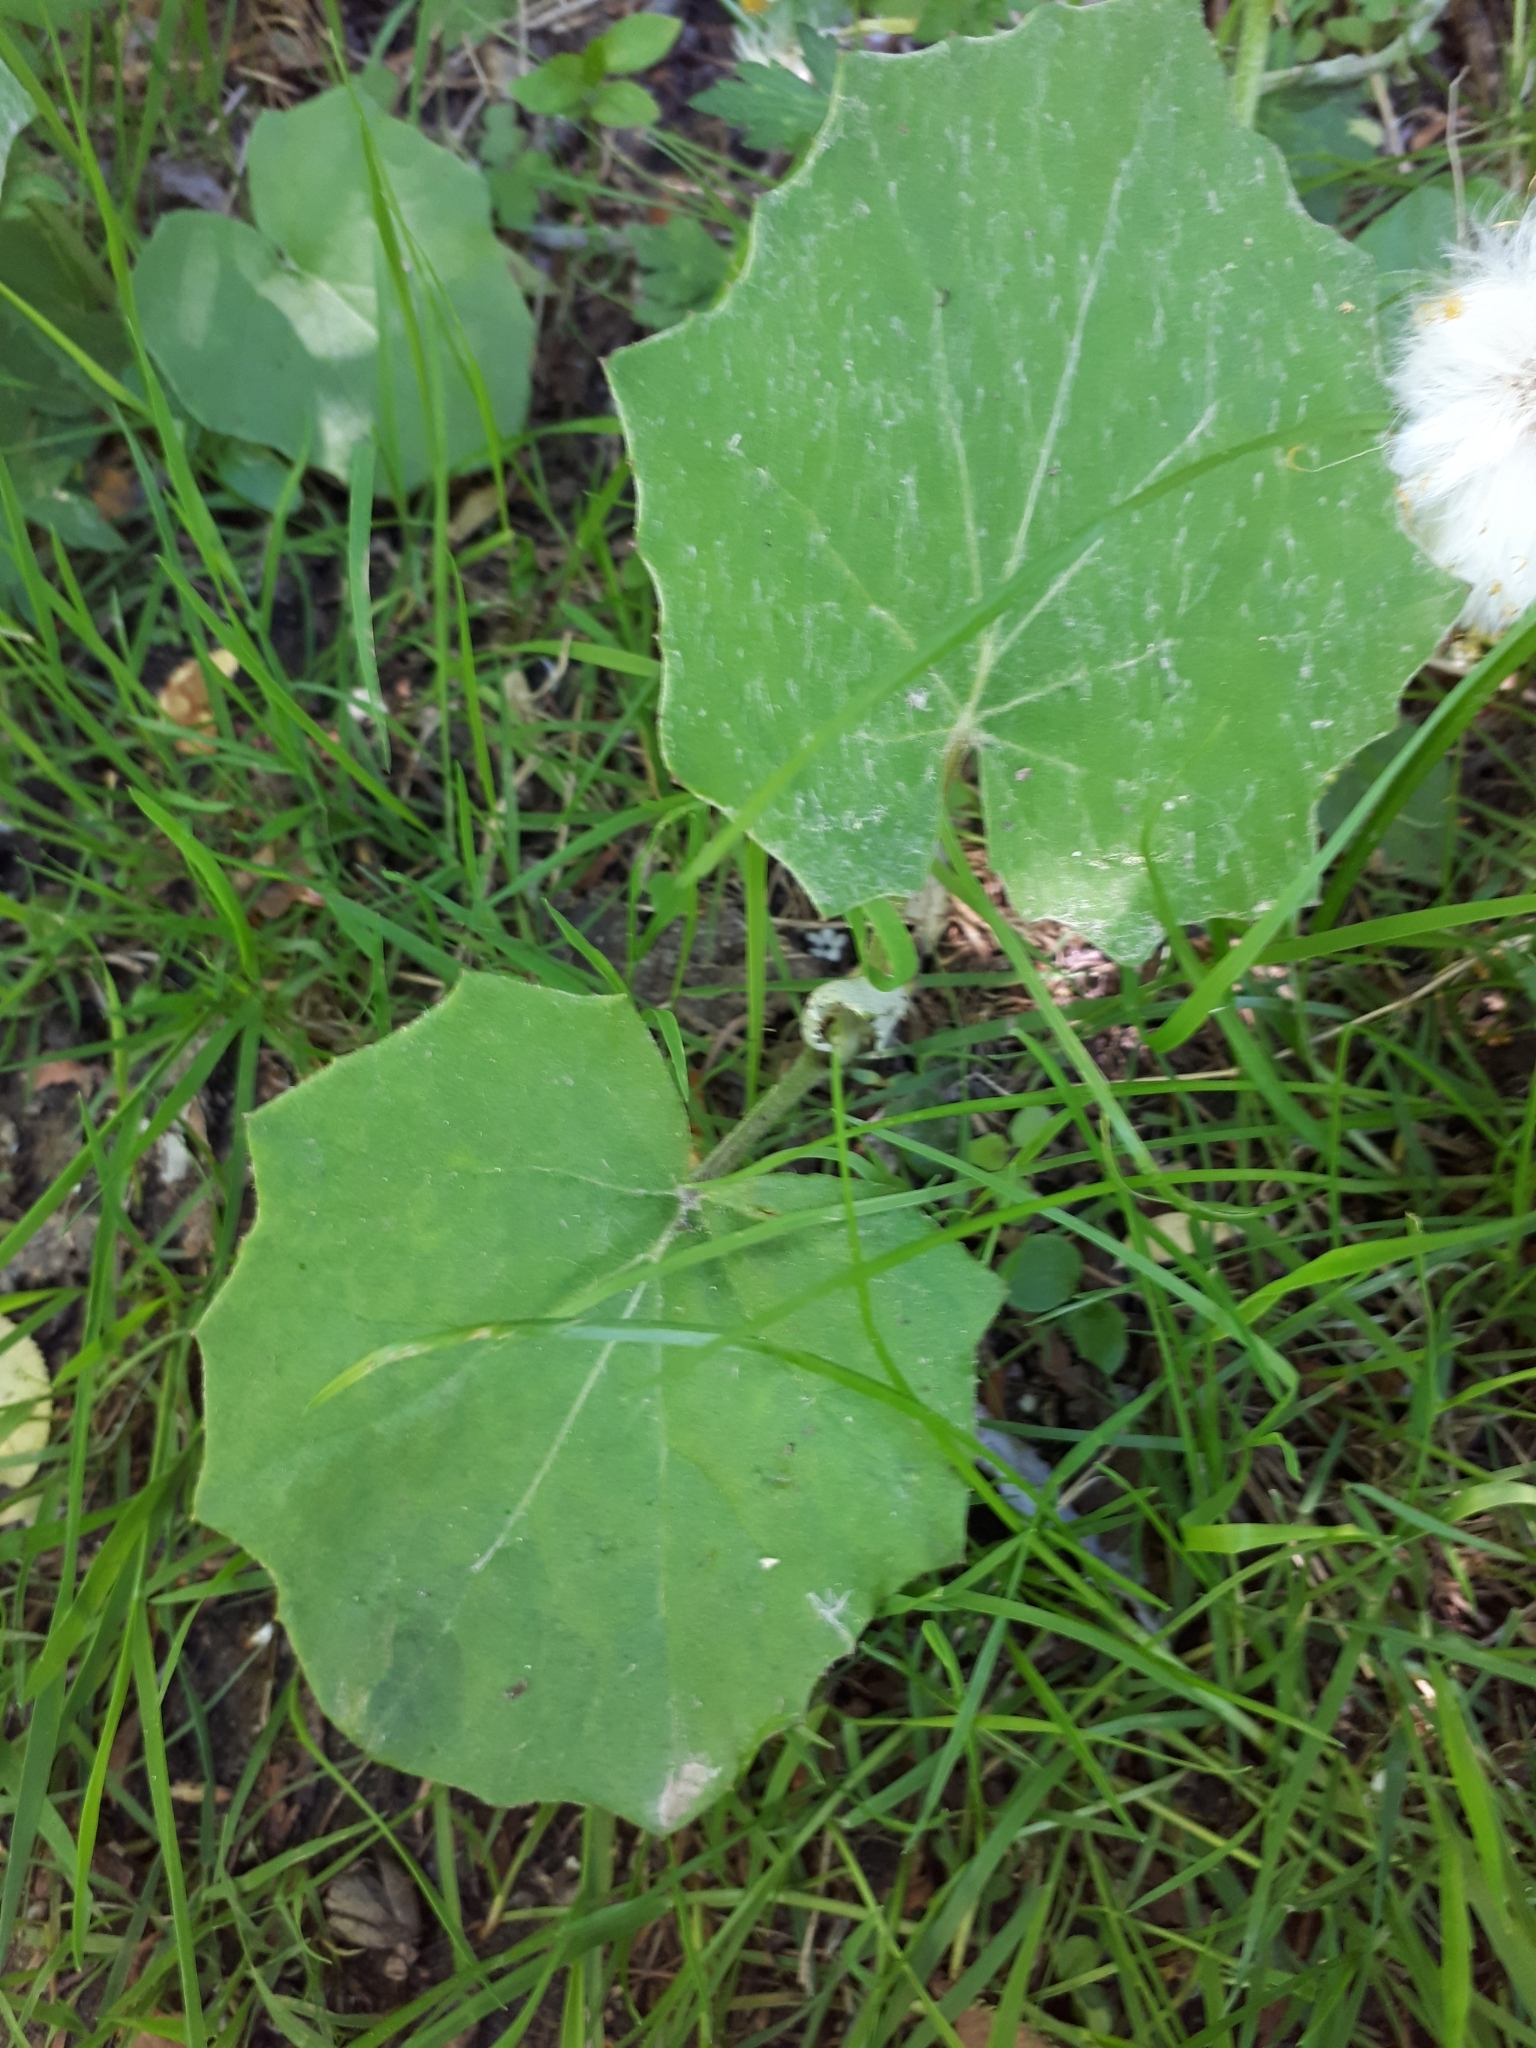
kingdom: Plantae
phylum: Tracheophyta
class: Magnoliopsida
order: Asterales
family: Asteraceae
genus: Tussilago
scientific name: Tussilago farfara
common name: Coltsfoot
